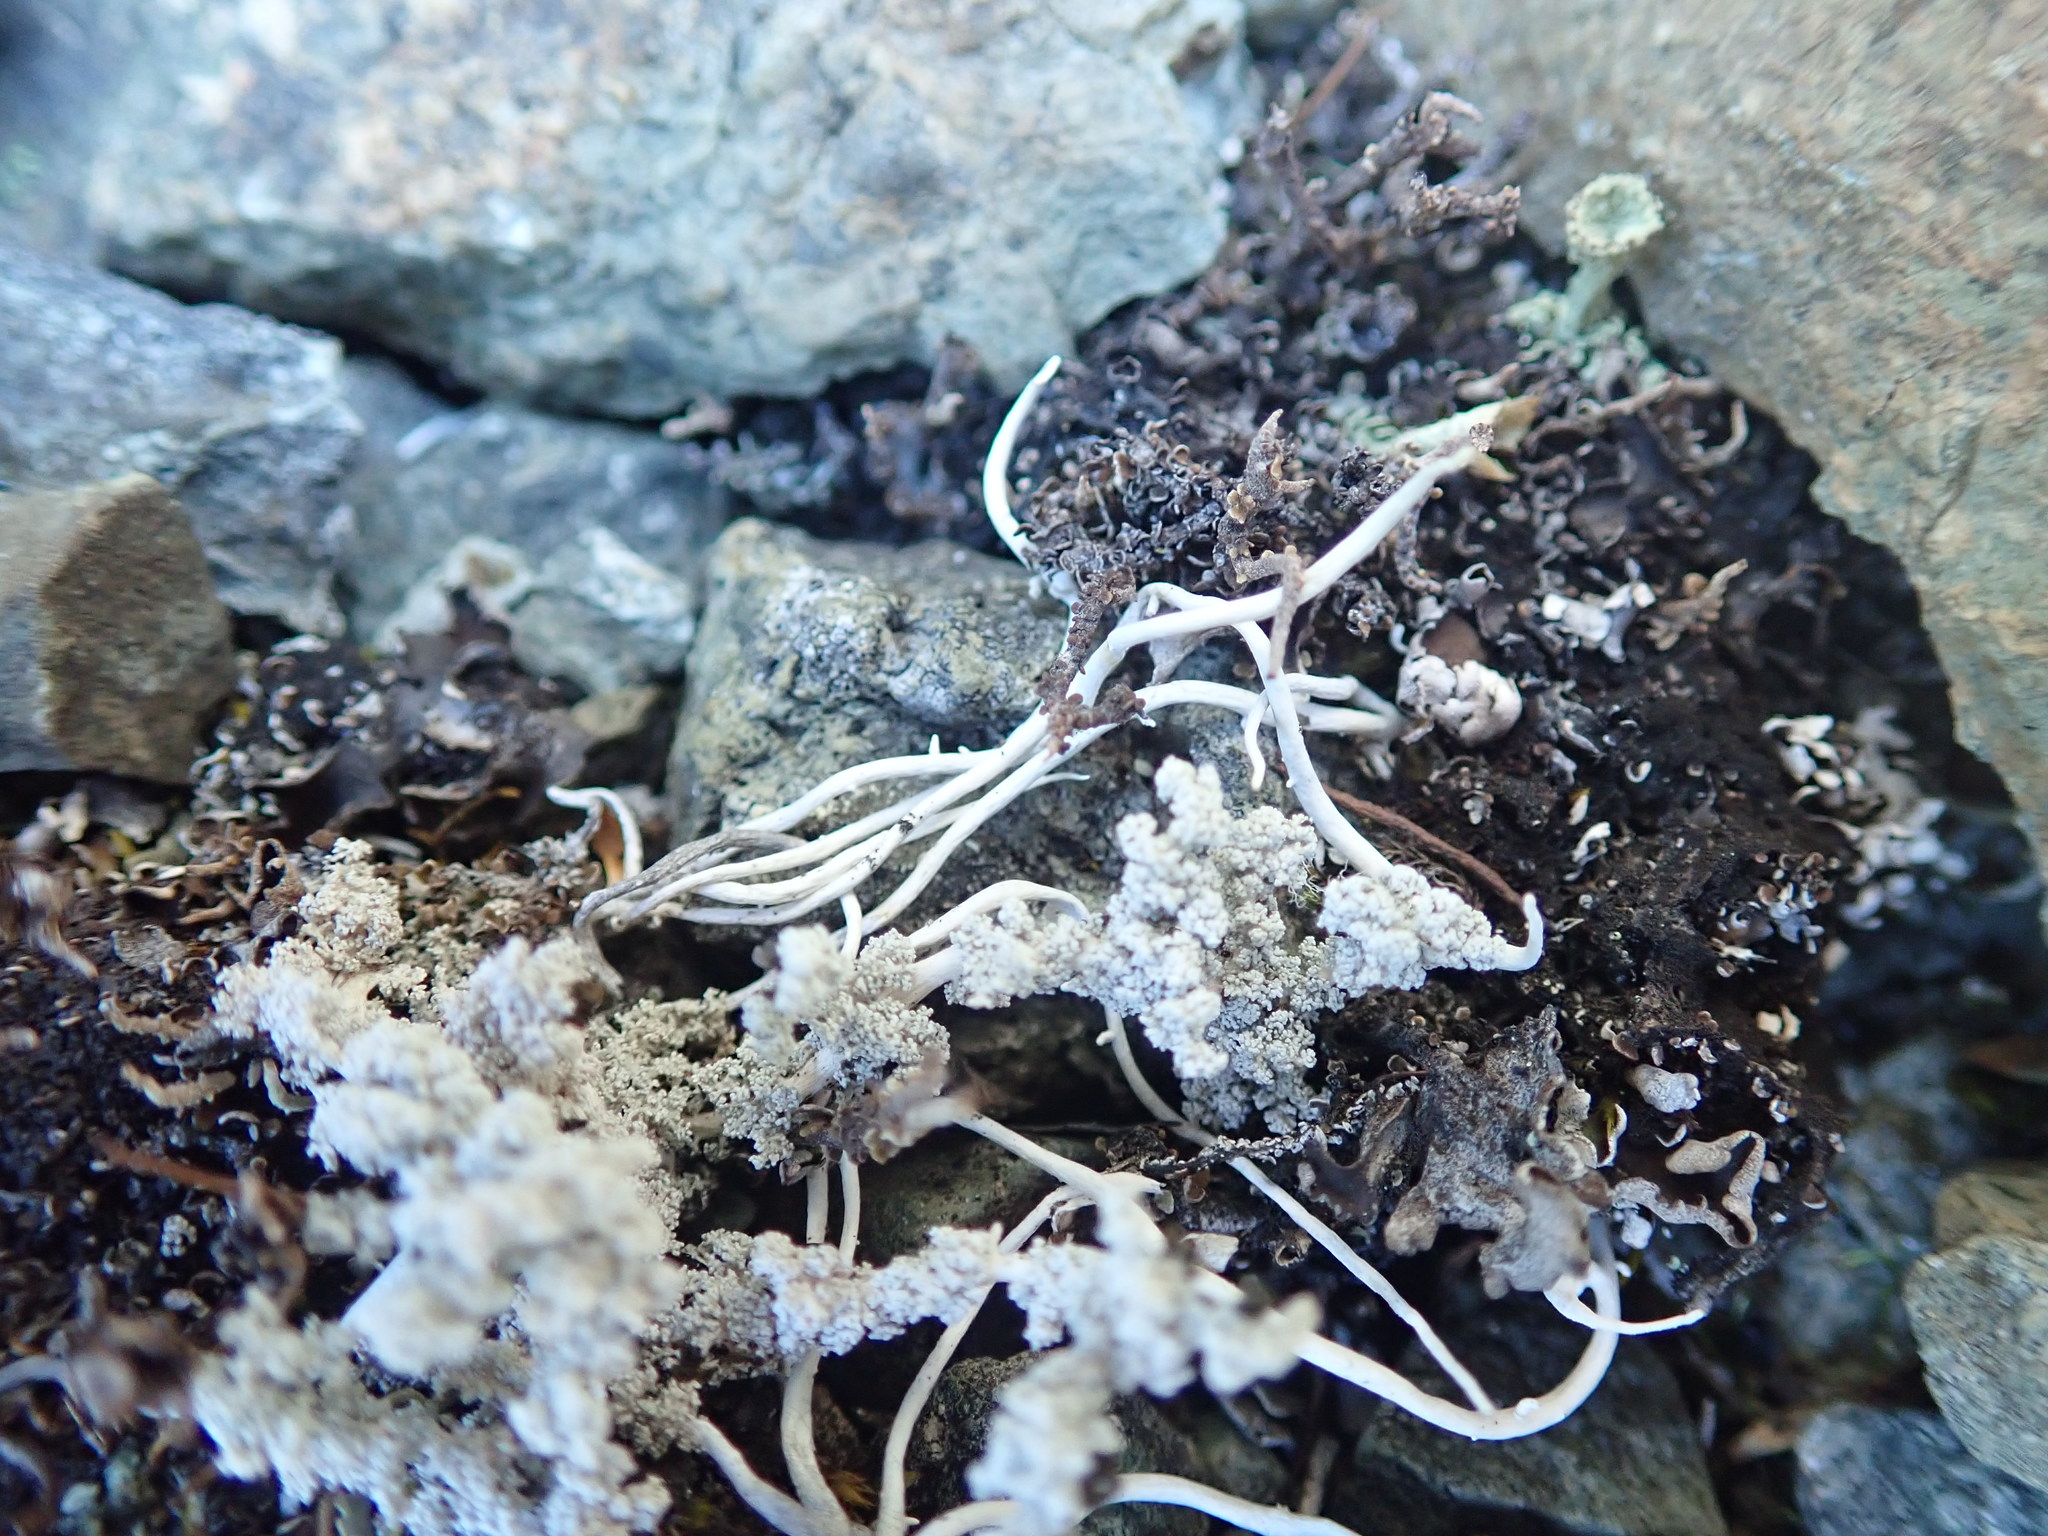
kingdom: Fungi
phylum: Ascomycota
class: Lecanoromycetes
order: Pertusariales
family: Icmadophilaceae
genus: Thamnolia
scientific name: Thamnolia vermicularis
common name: Whiteworm lichen
